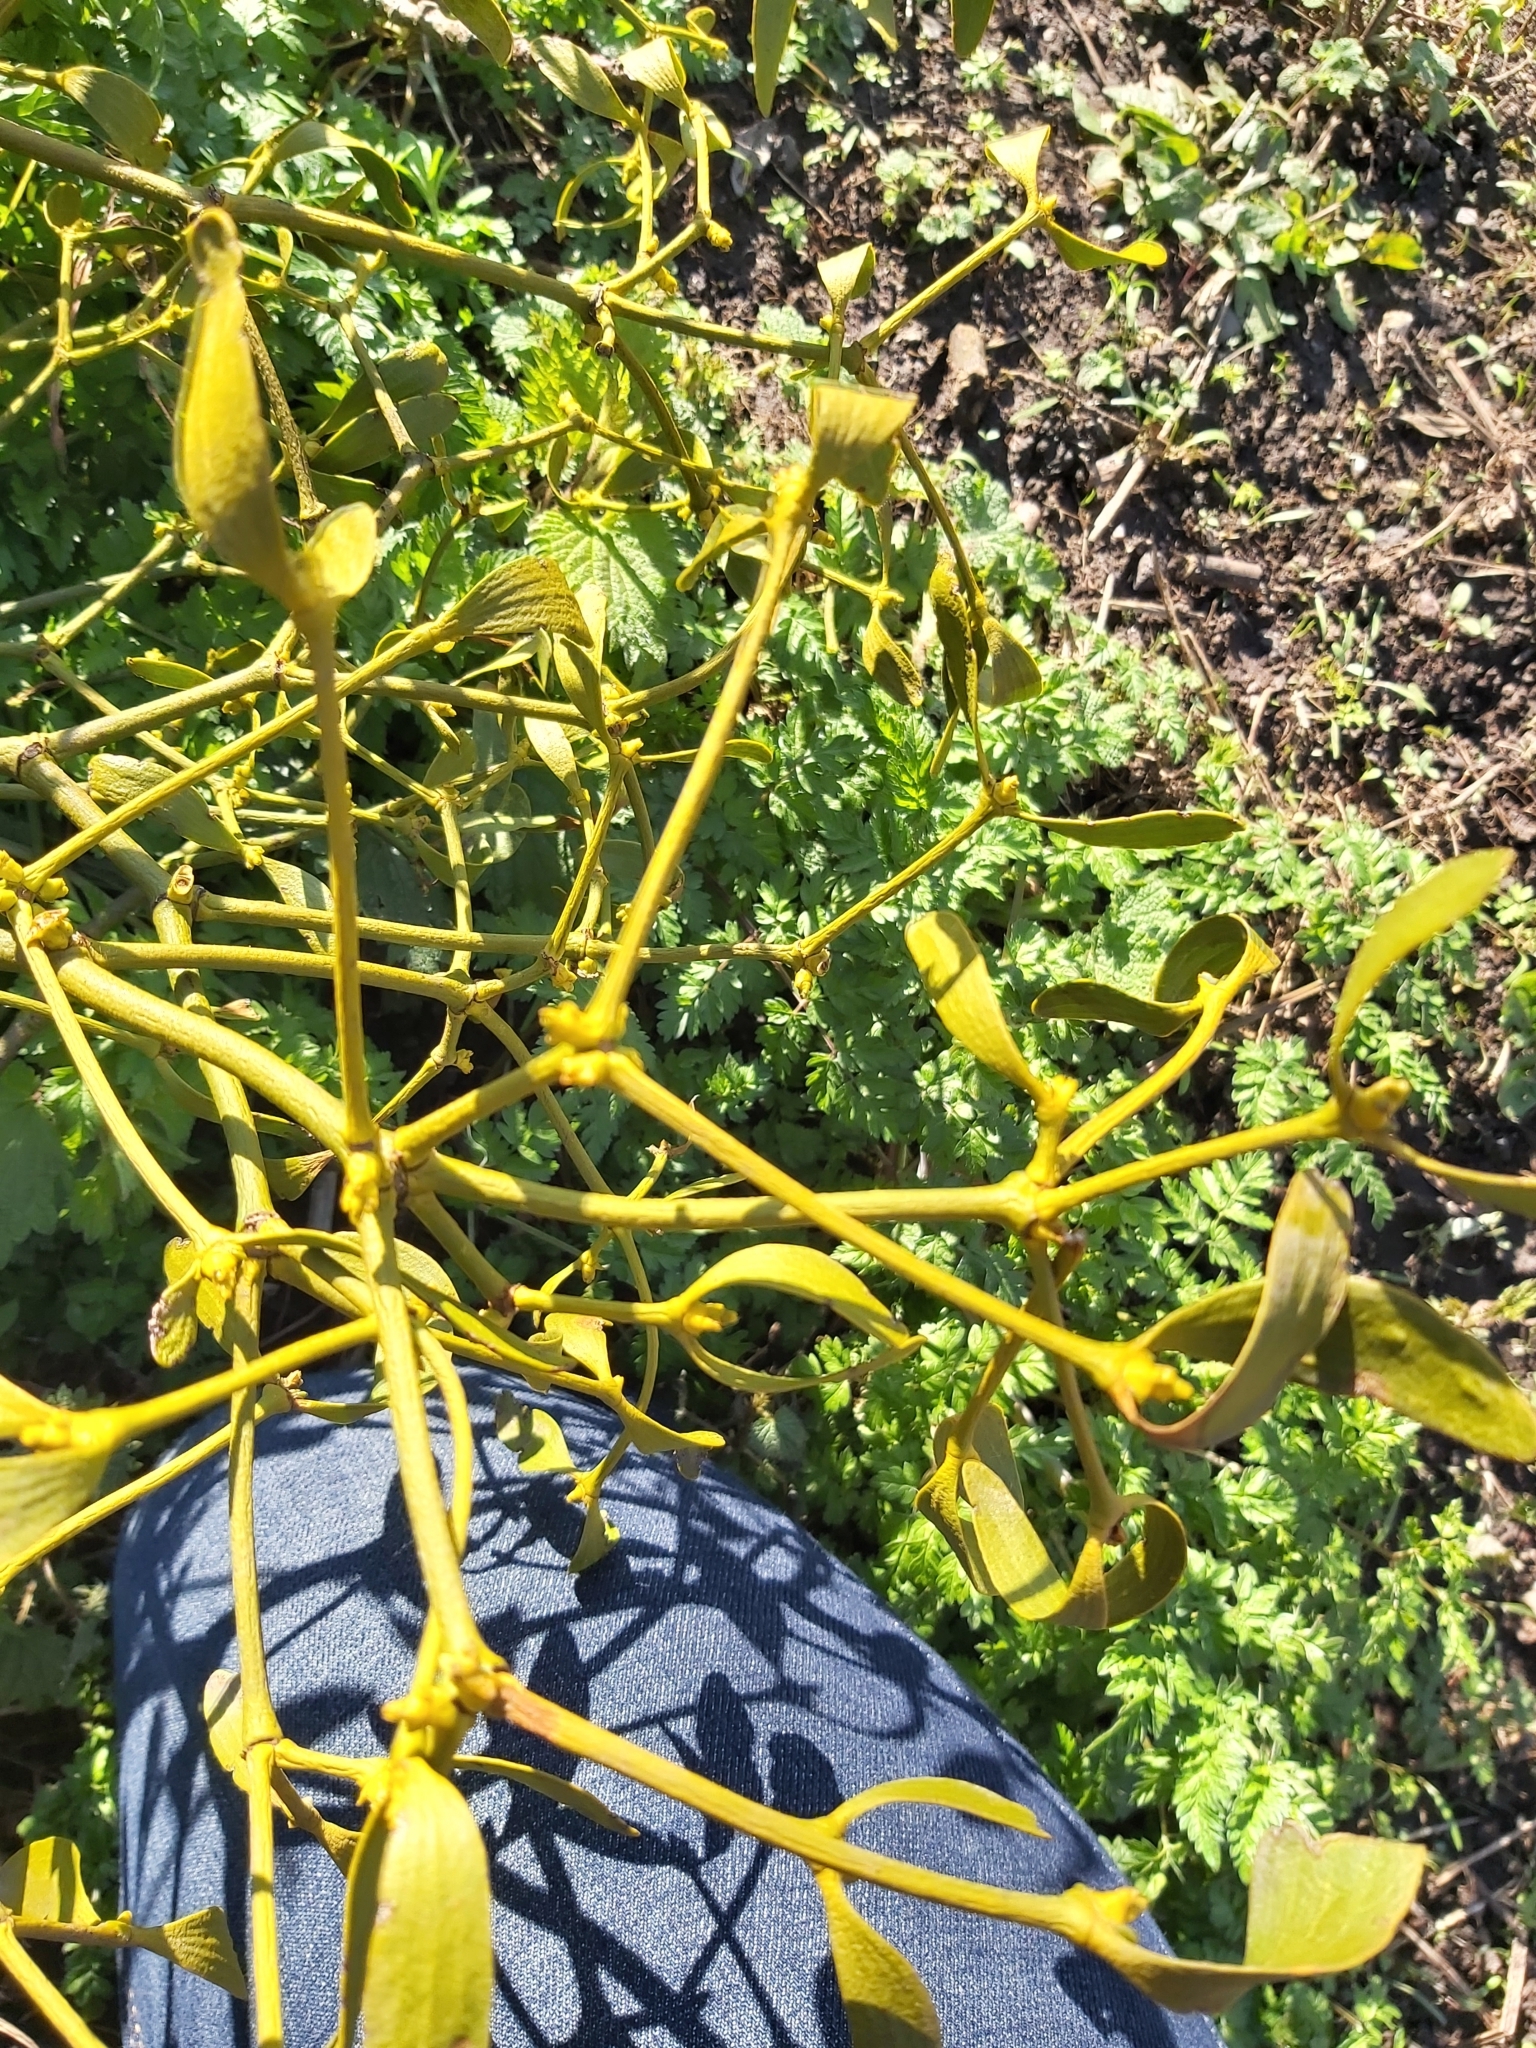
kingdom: Plantae
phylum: Tracheophyta
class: Magnoliopsida
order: Santalales
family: Viscaceae
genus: Viscum
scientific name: Viscum album
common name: Mistletoe
